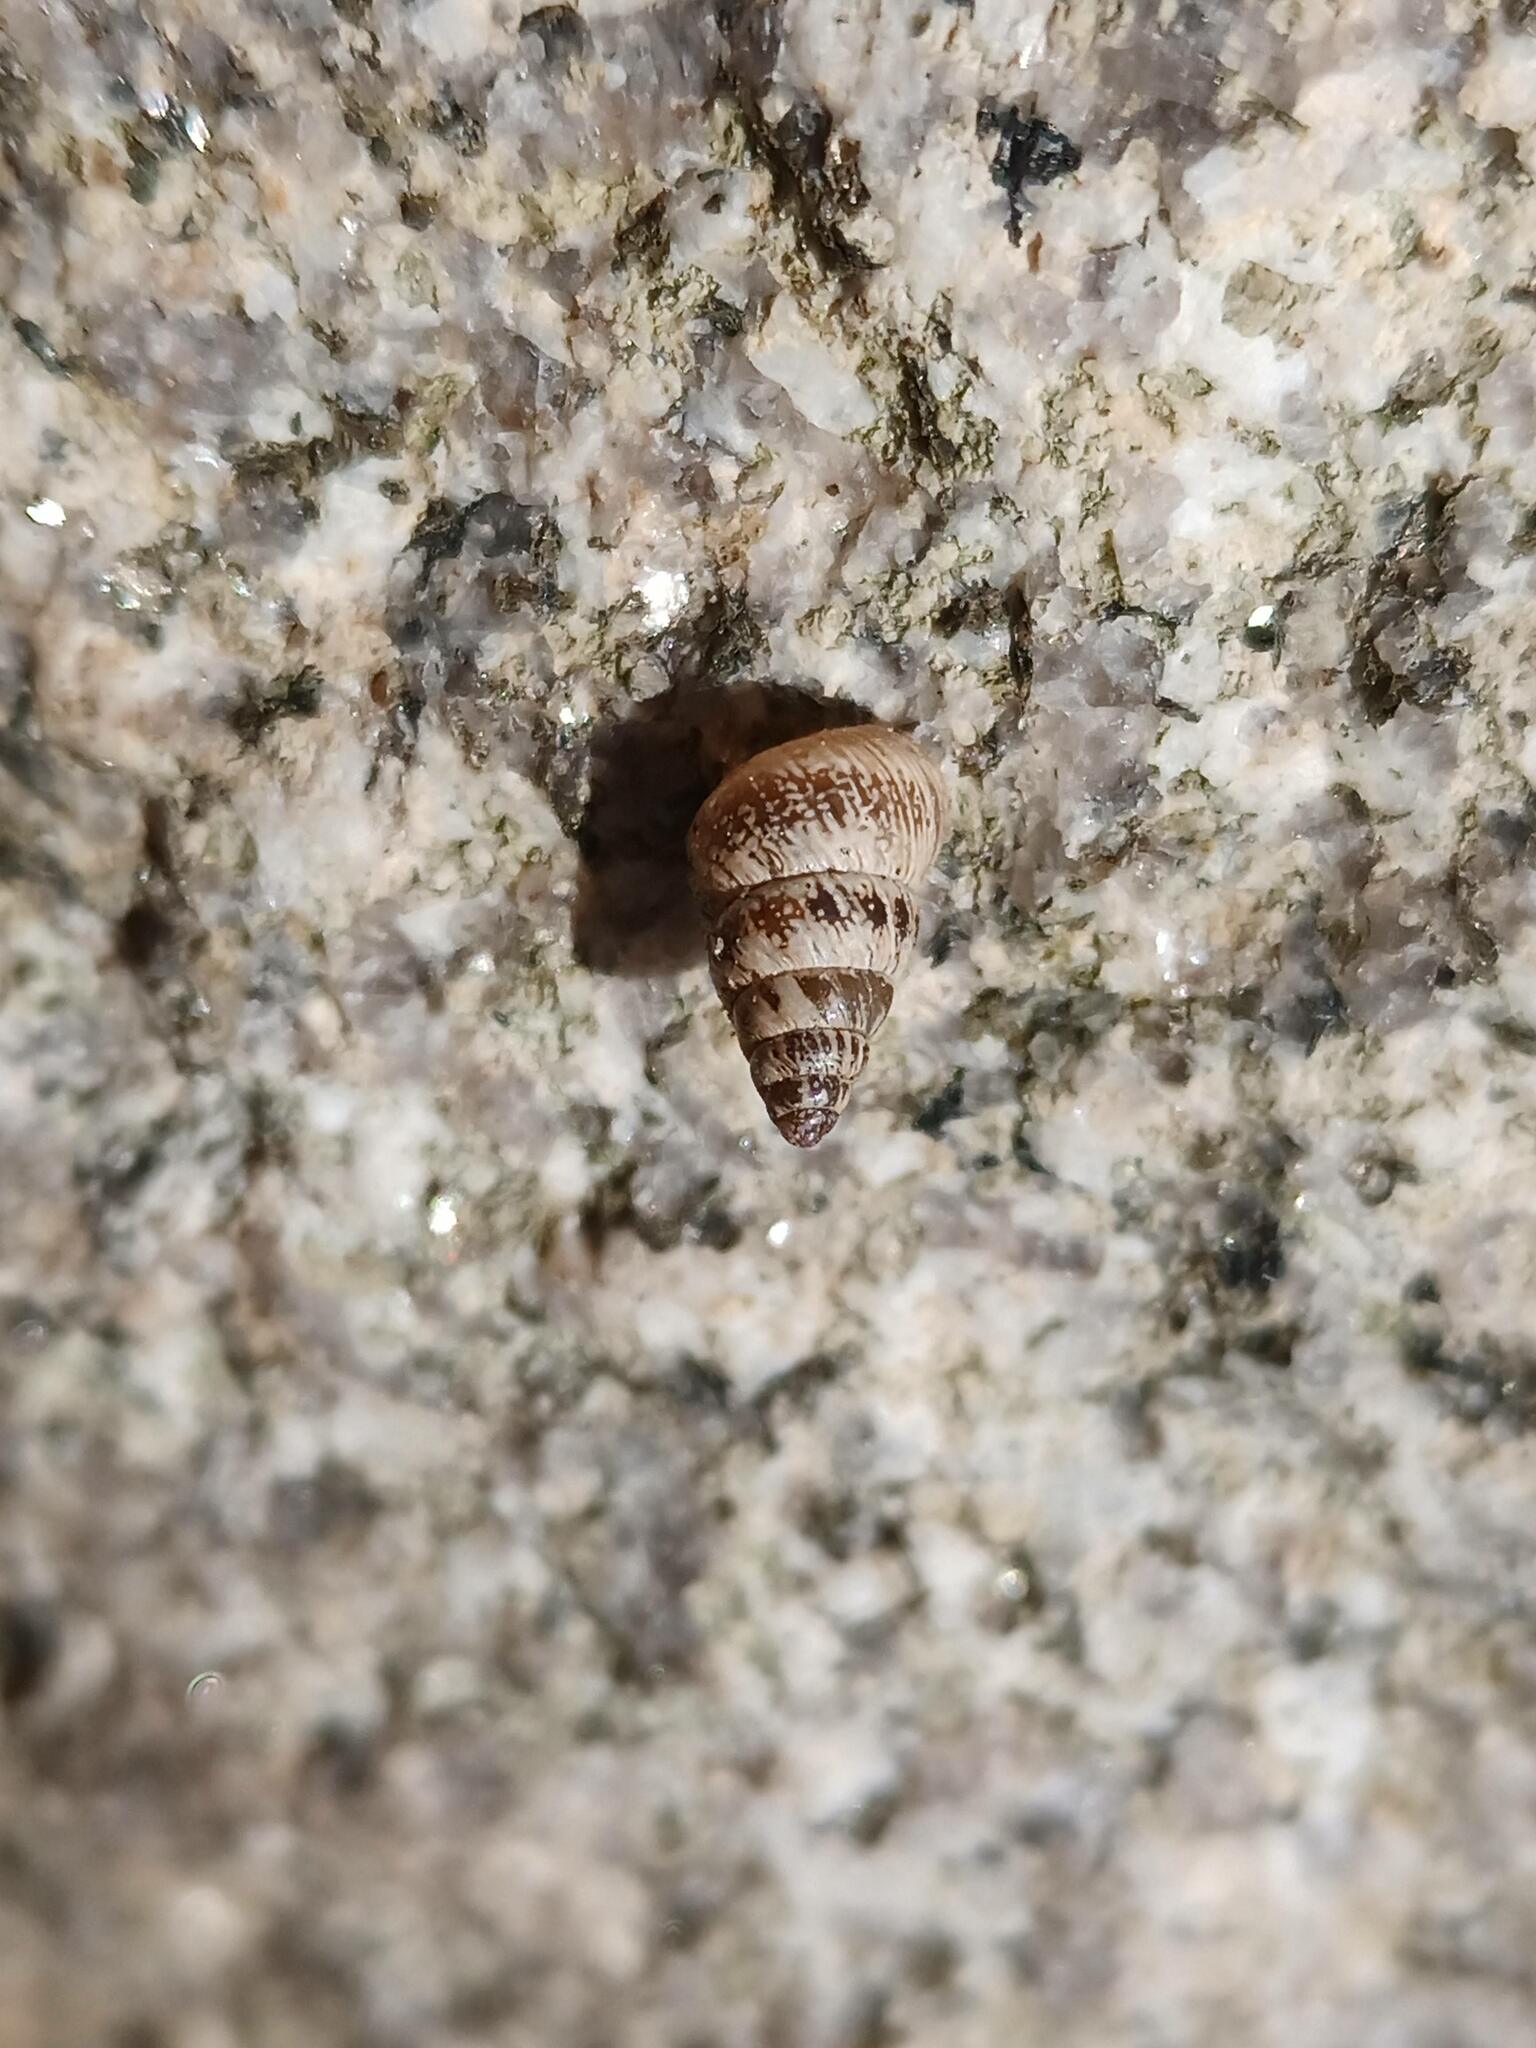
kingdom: Animalia
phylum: Mollusca
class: Gastropoda
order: Stylommatophora
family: Geomitridae
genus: Cochlicella
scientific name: Cochlicella barbara
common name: Potbellied helicellid
